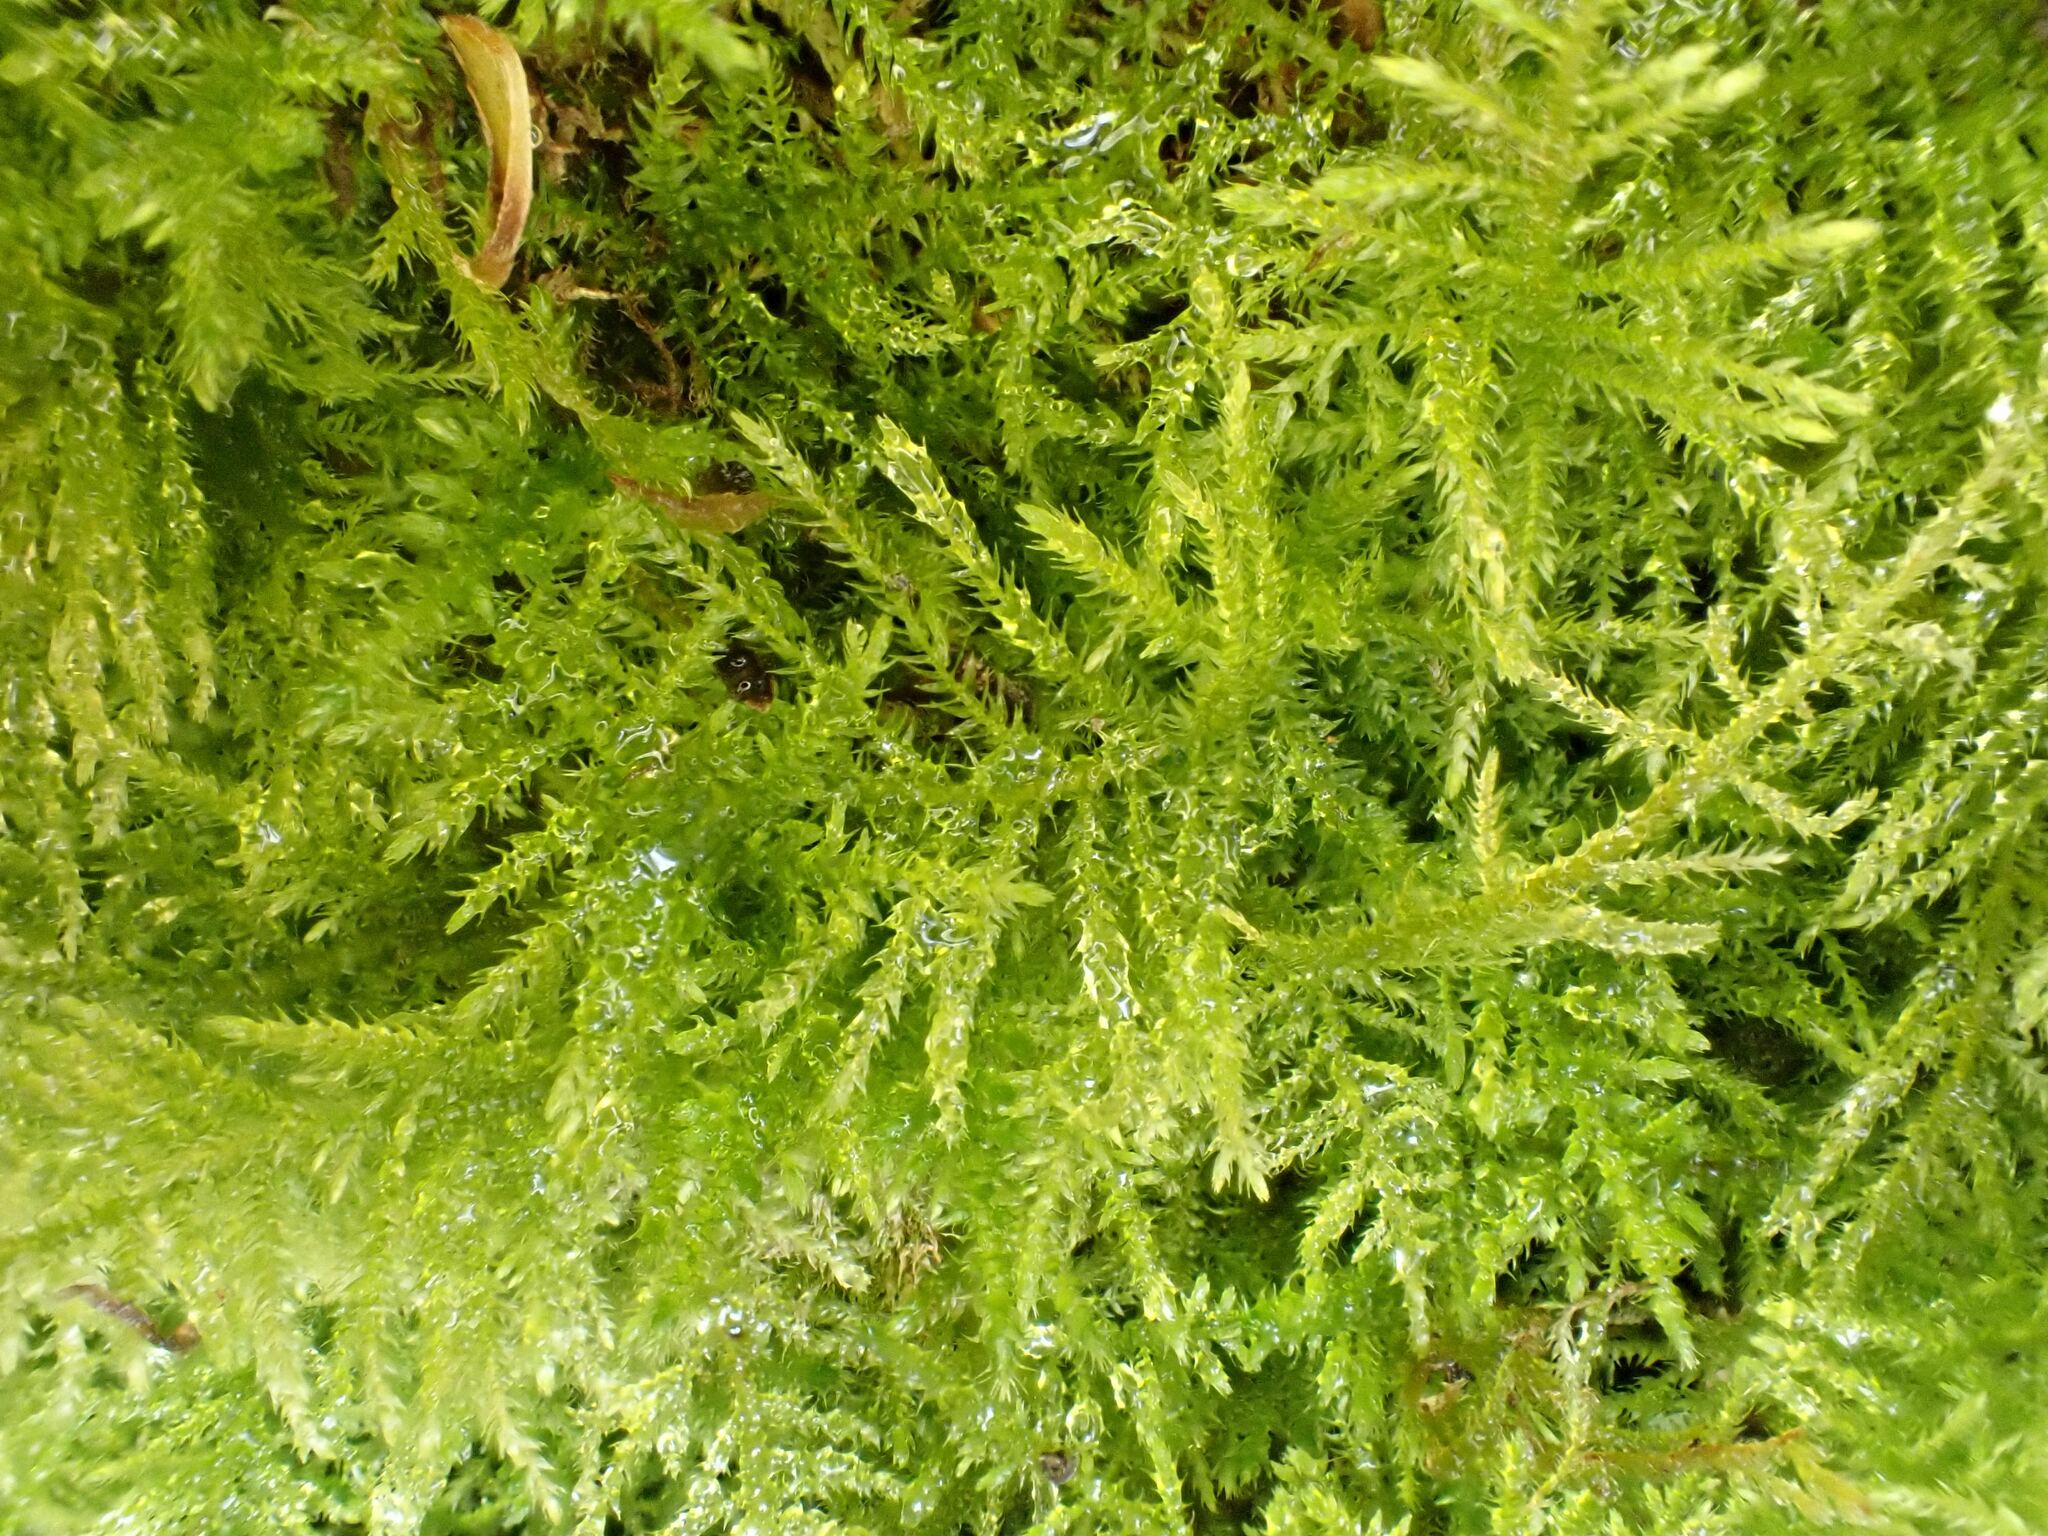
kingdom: Plantae
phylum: Bryophyta
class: Bryopsida
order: Hypnales
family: Brachytheciaceae
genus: Kindbergia
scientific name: Kindbergia praelonga
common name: Slender beaked moss
